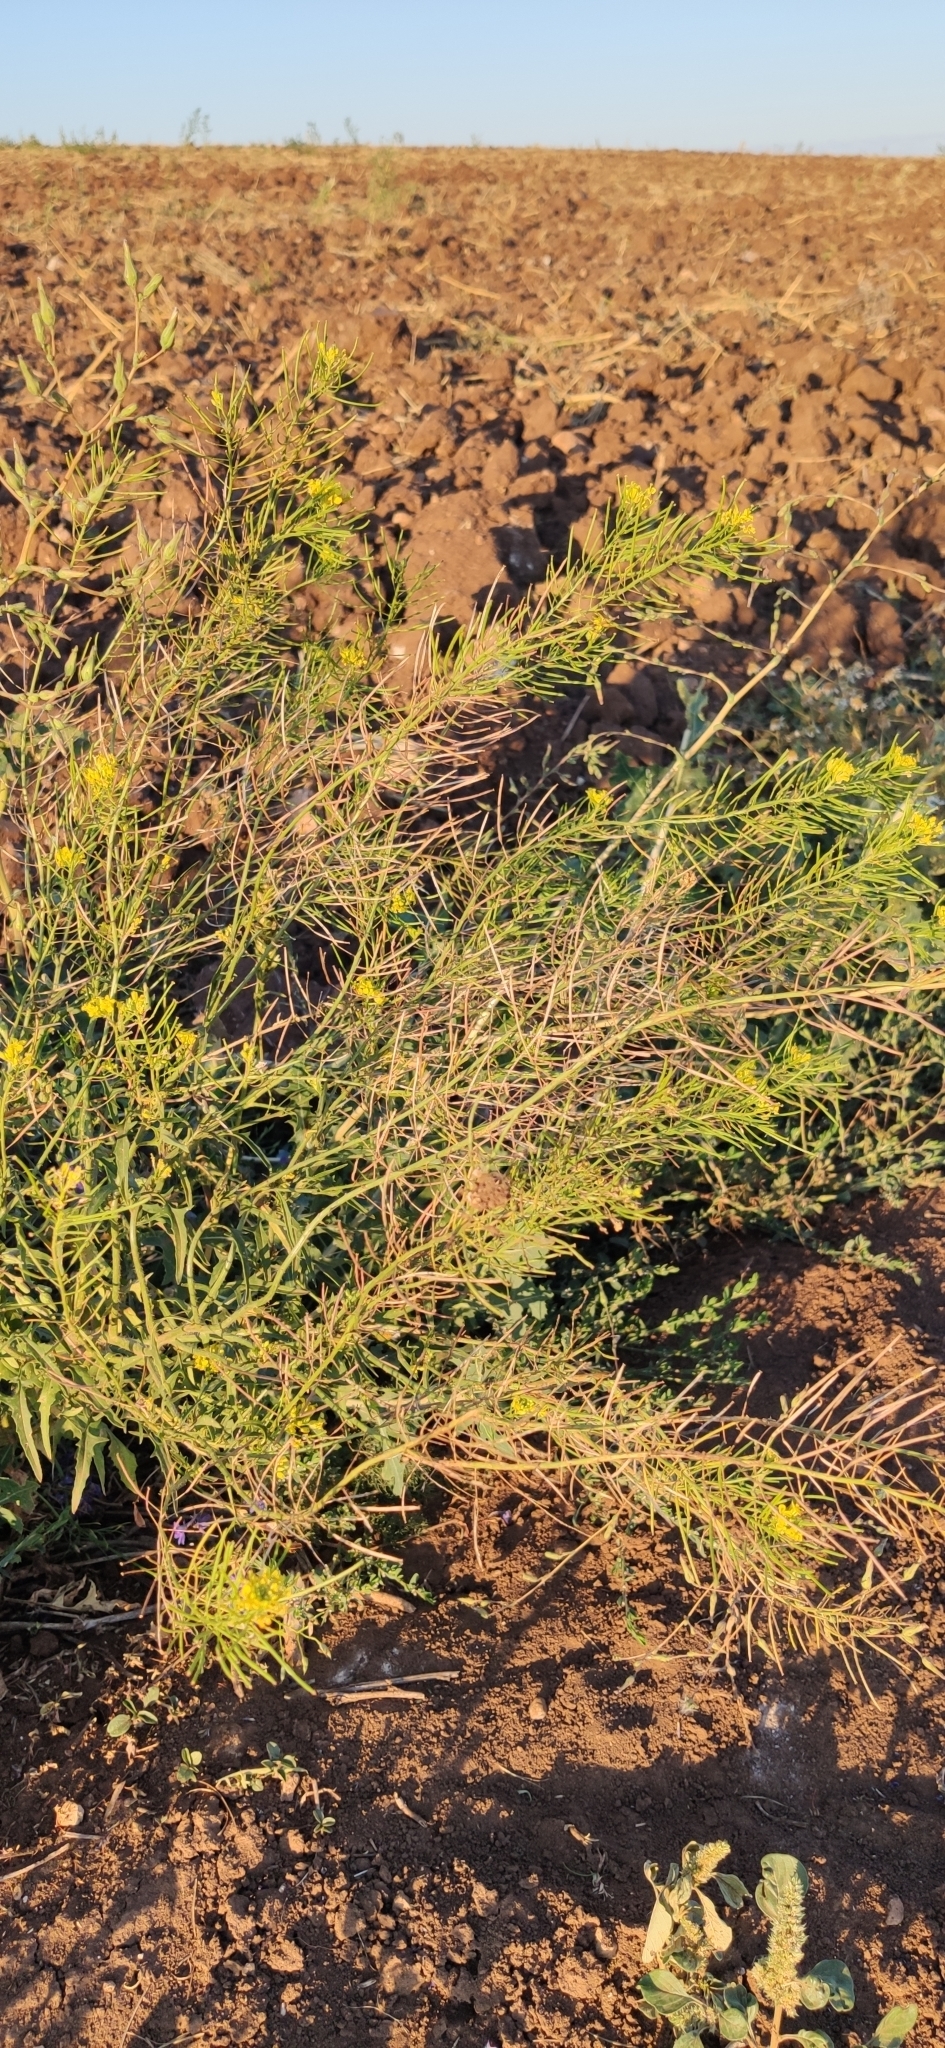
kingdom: Plantae
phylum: Tracheophyta
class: Magnoliopsida
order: Brassicales
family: Brassicaceae
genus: Sisymbrium
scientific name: Sisymbrium loeselii
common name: False london-rocket
